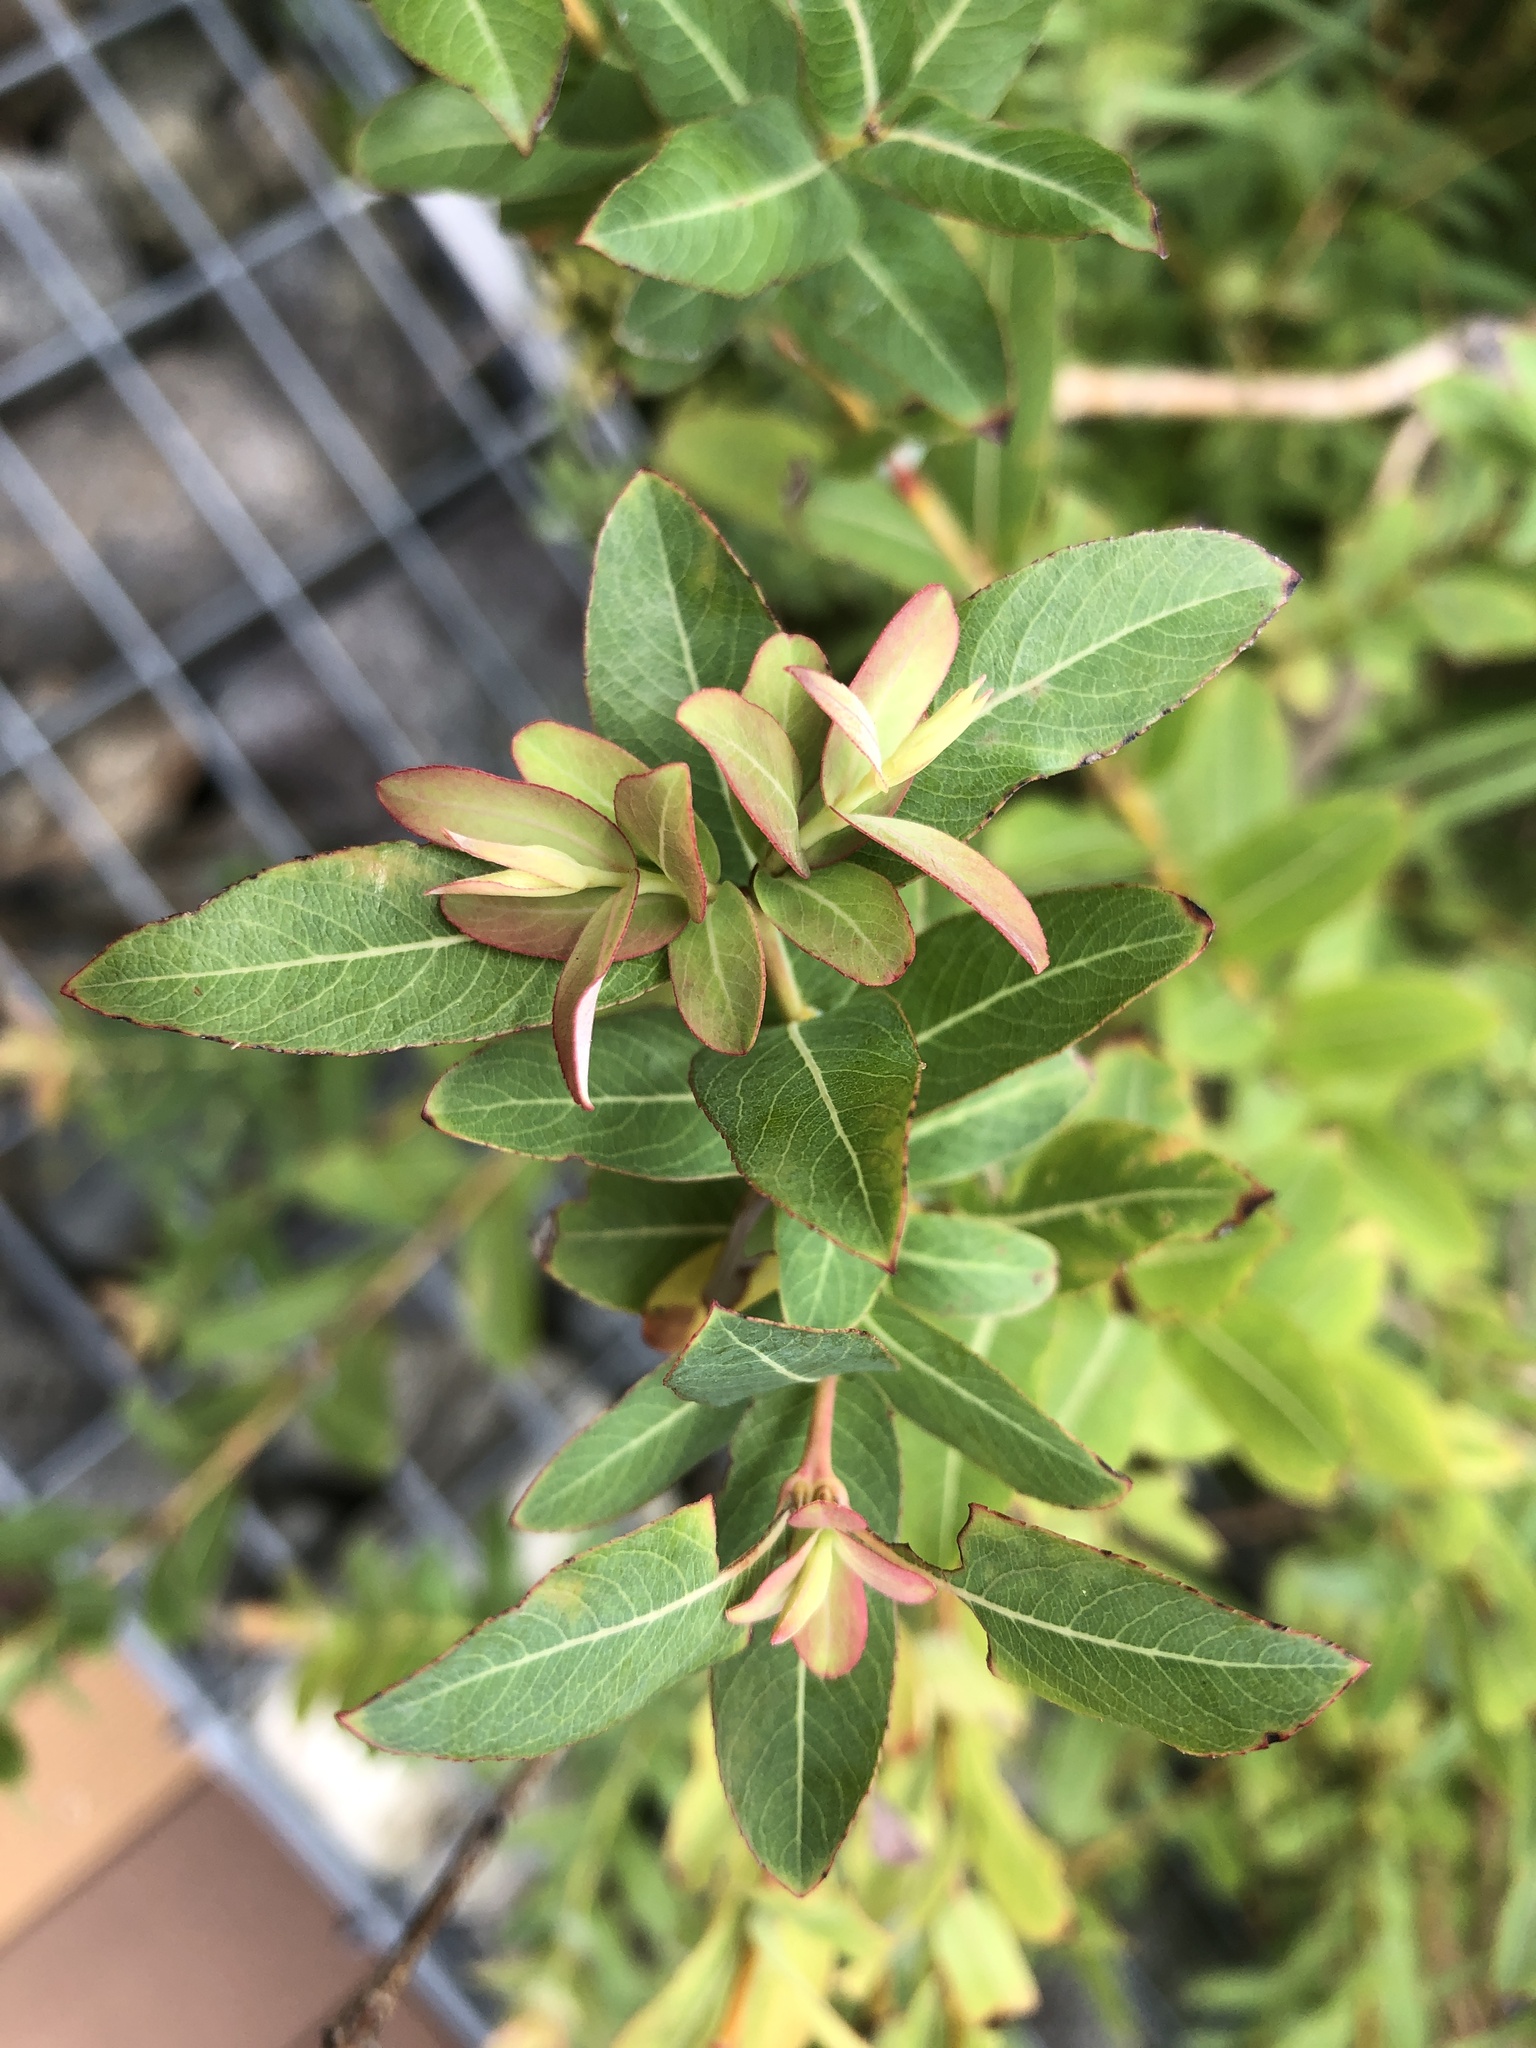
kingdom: Plantae
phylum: Tracheophyta
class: Magnoliopsida
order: Malpighiales
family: Salicaceae
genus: Salix
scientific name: Salix integra
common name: Dappled willow
